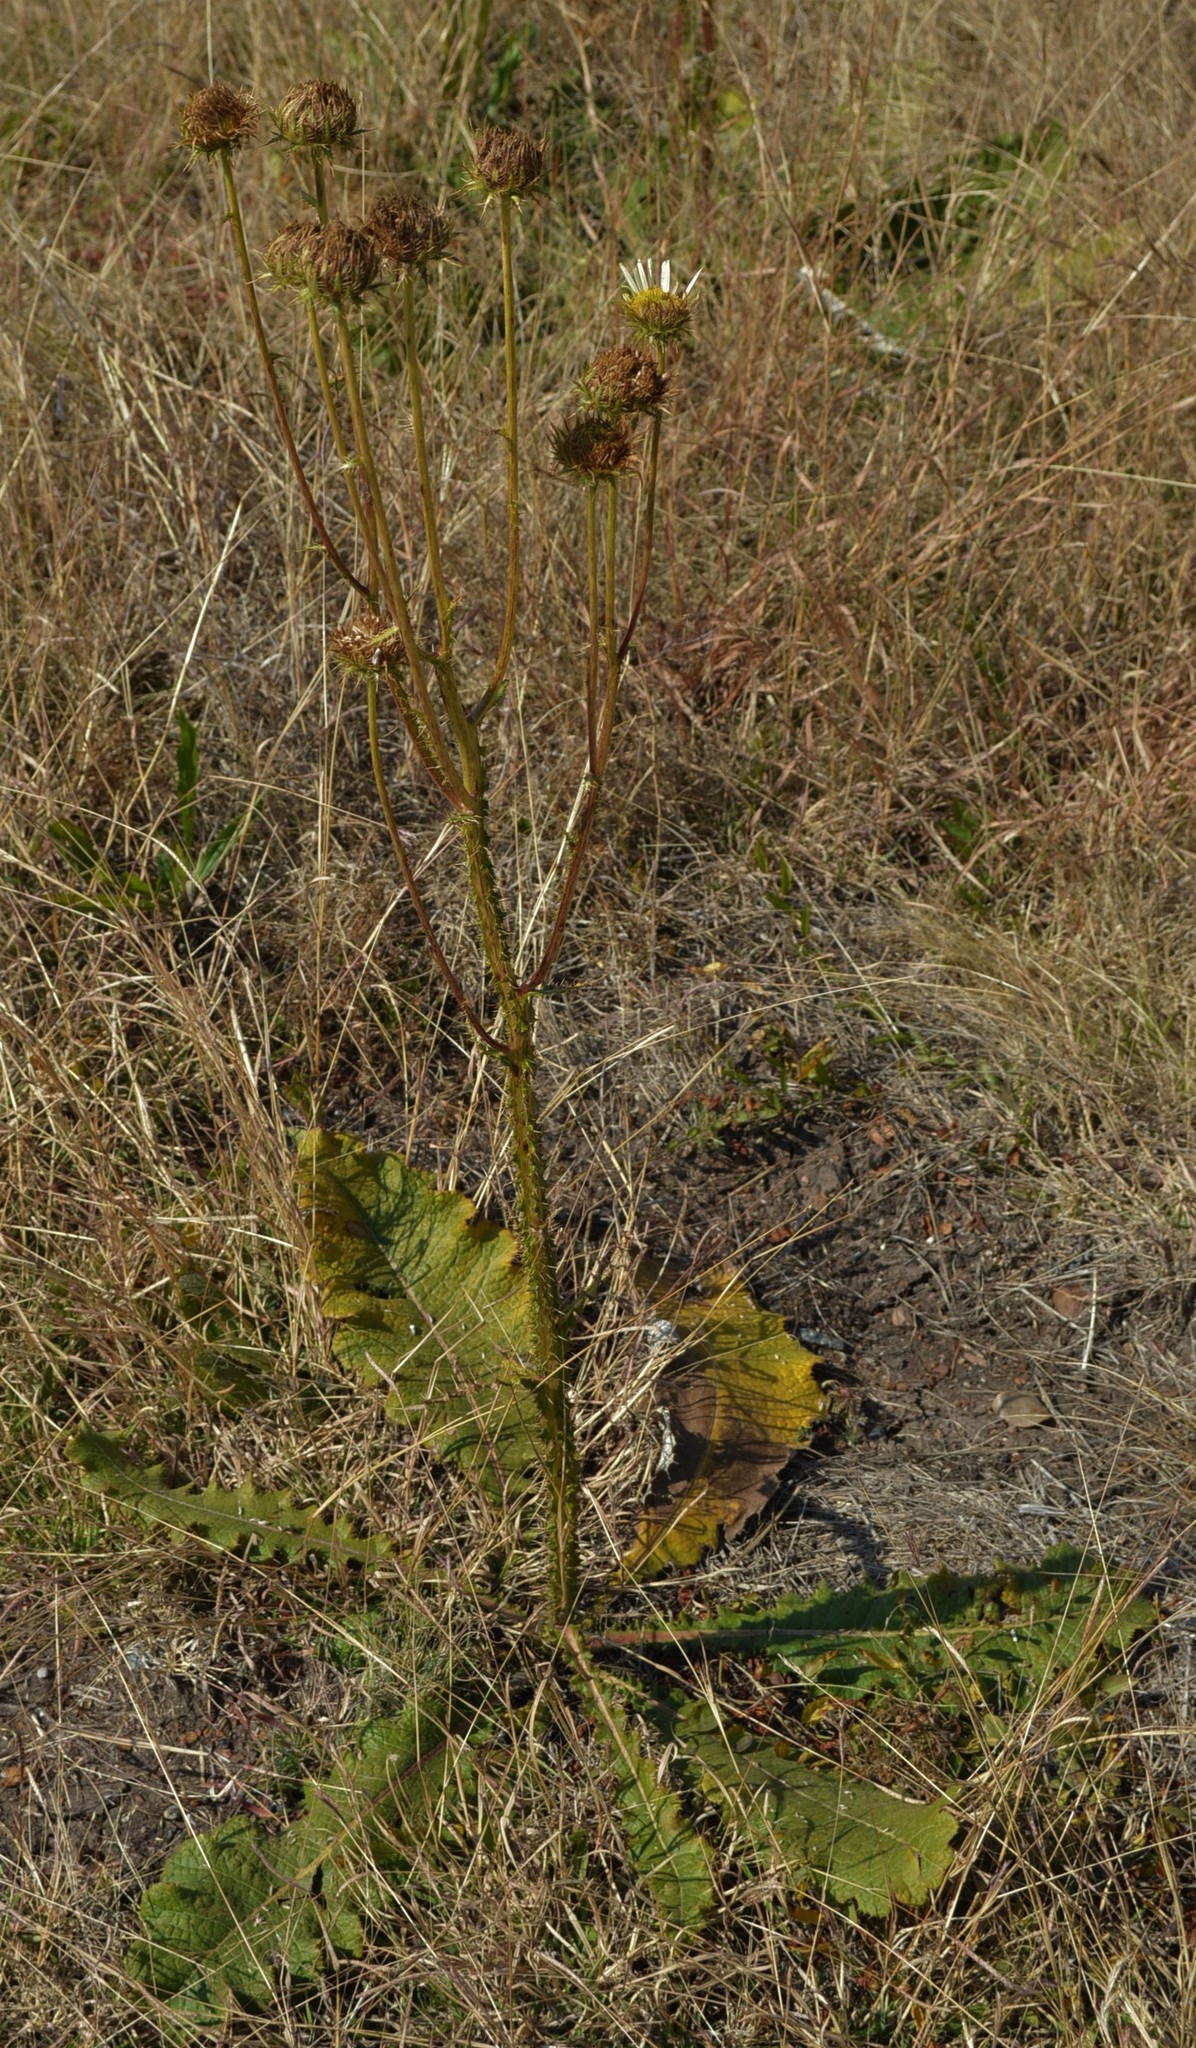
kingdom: Plantae
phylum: Tracheophyta
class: Magnoliopsida
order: Asterales
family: Asteraceae
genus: Berkheya
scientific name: Berkheya radula
